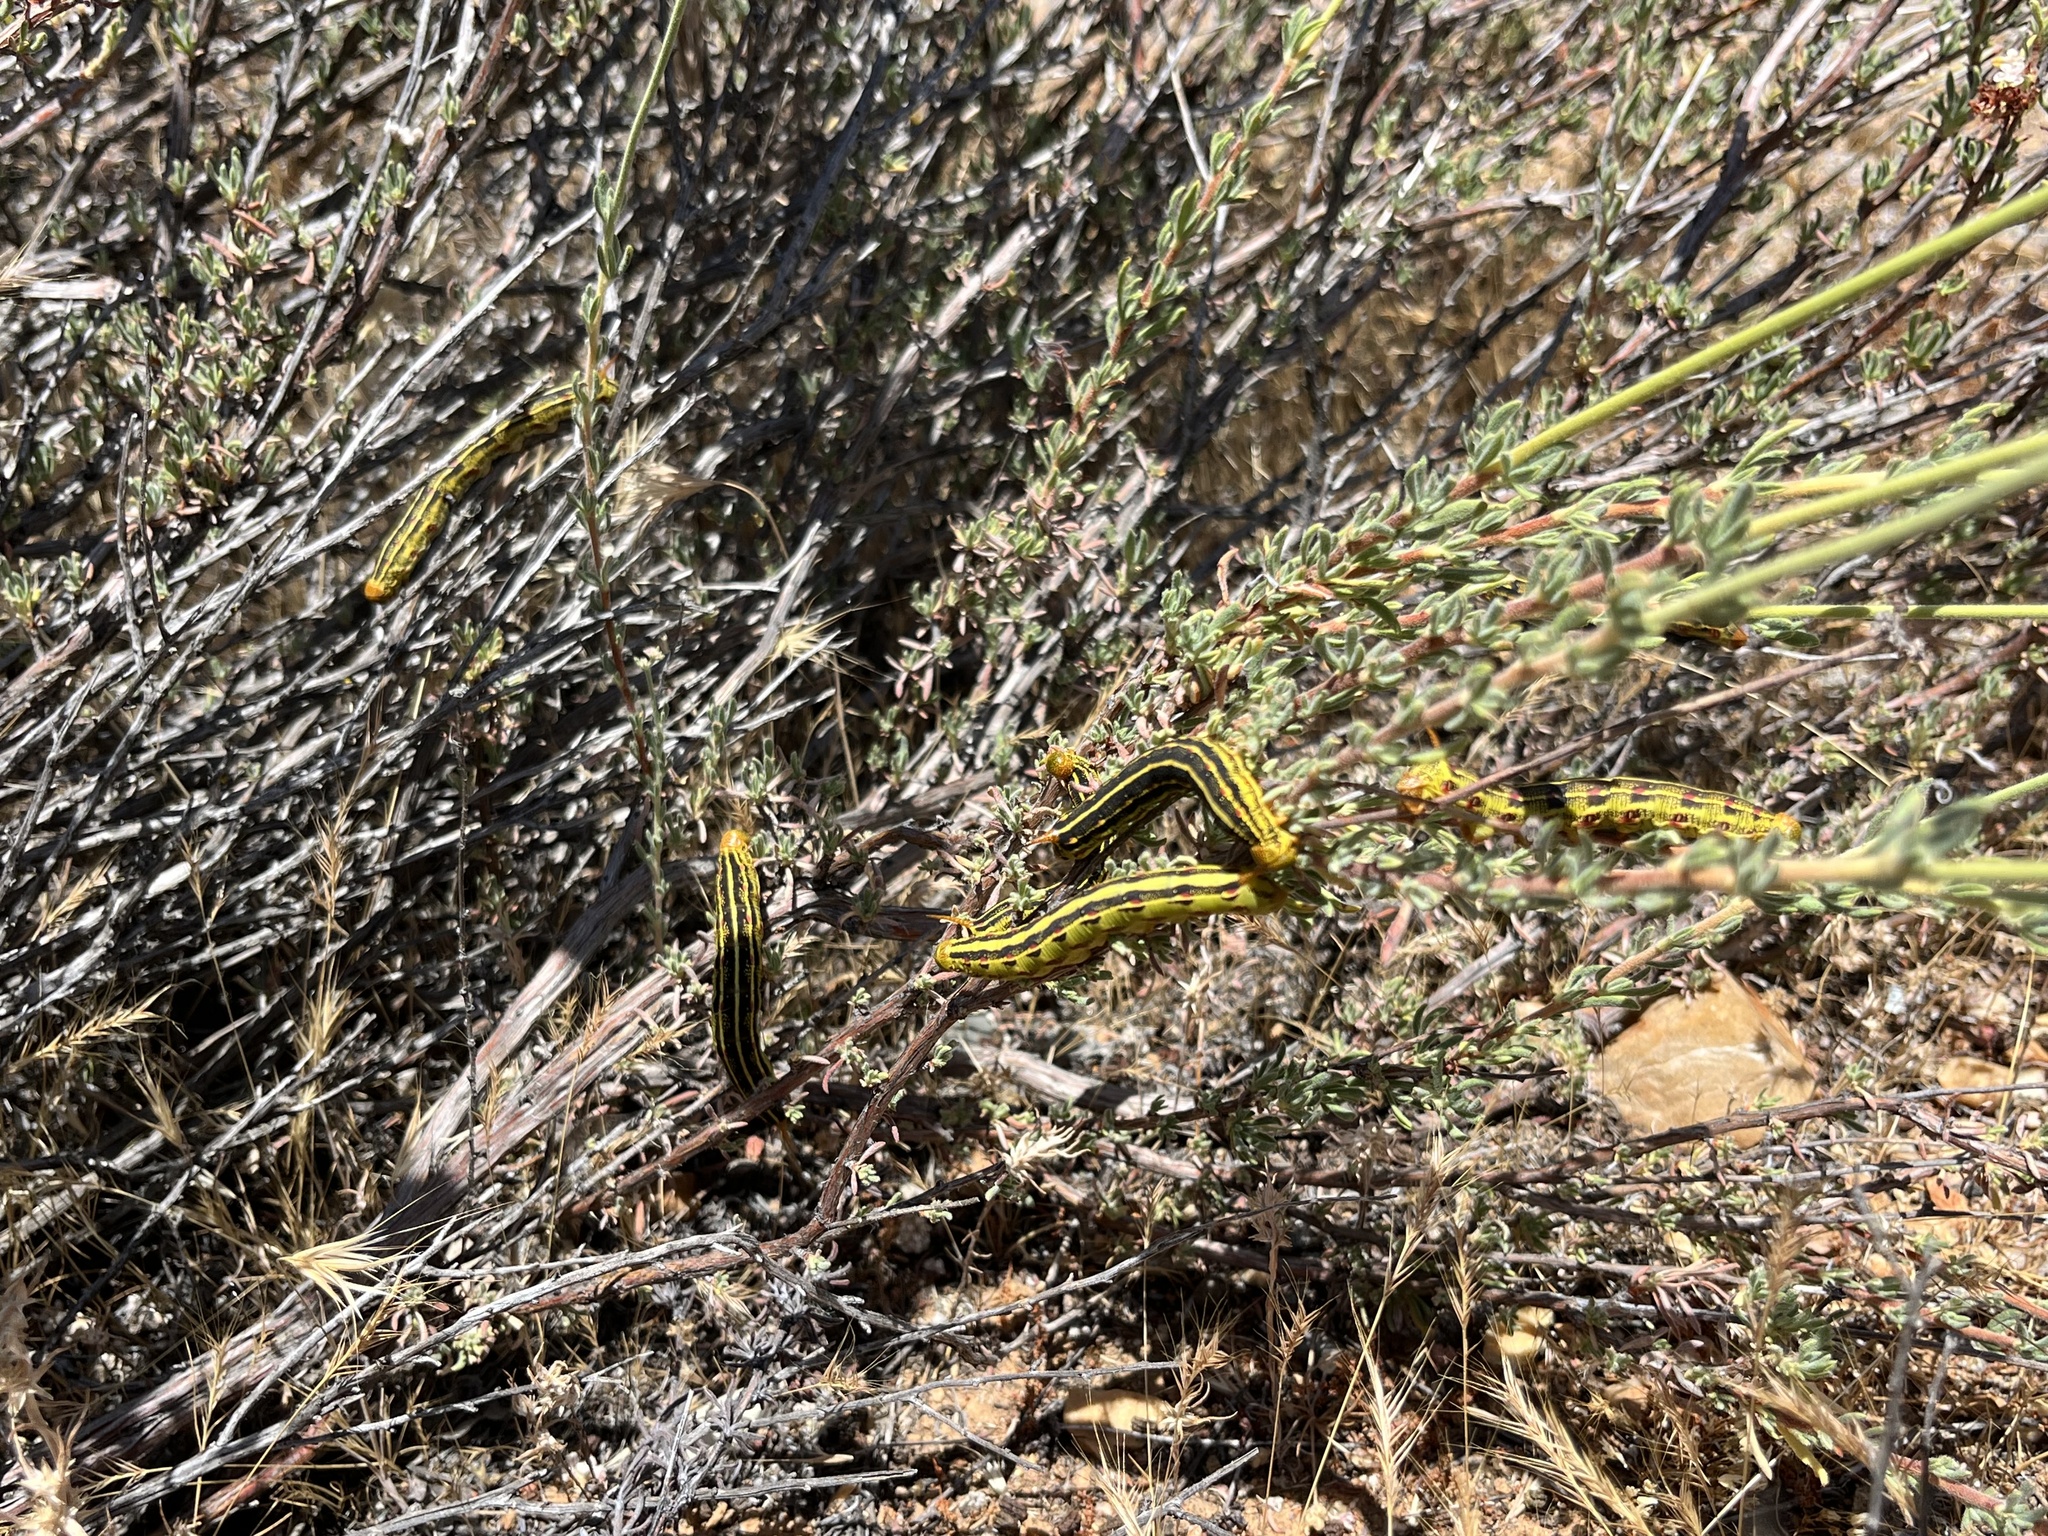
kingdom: Animalia
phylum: Arthropoda
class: Insecta
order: Lepidoptera
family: Sphingidae
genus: Hyles
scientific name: Hyles lineata
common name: White-lined sphinx
